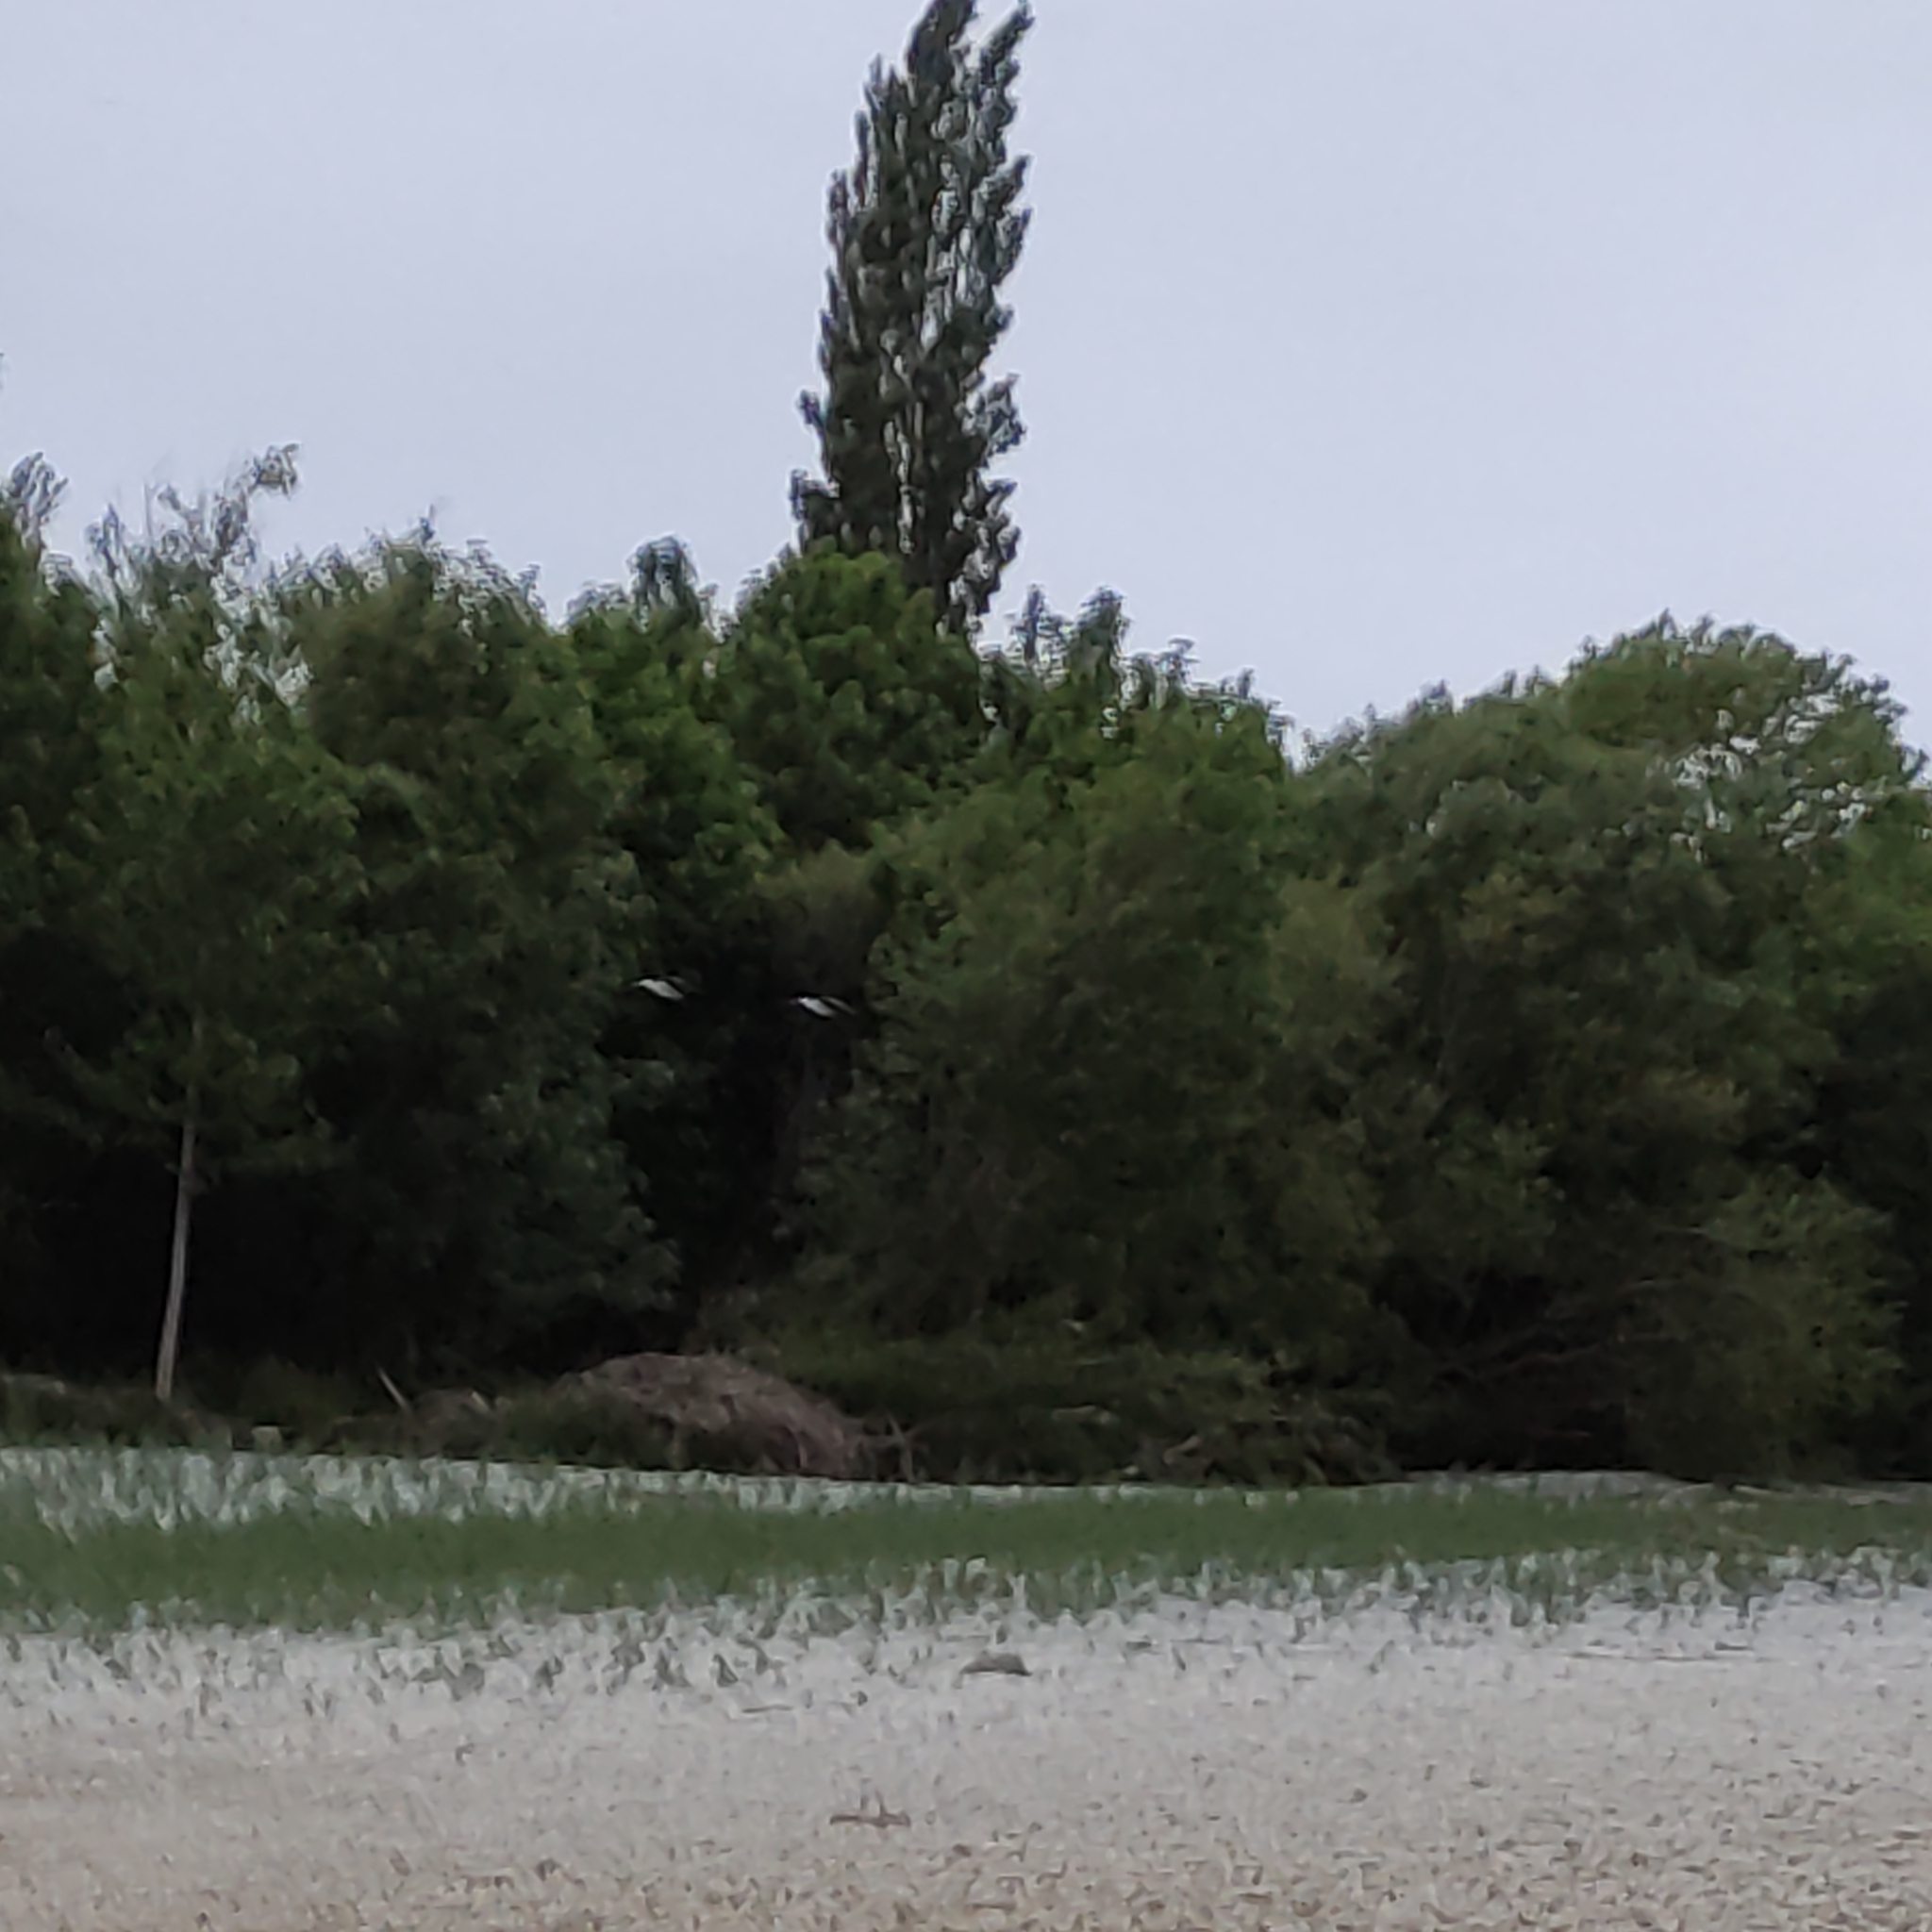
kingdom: Animalia
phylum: Chordata
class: Aves
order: Charadriiformes
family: Recurvirostridae
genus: Himantopus
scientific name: Himantopus leucocephalus
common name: White-headed stilt
